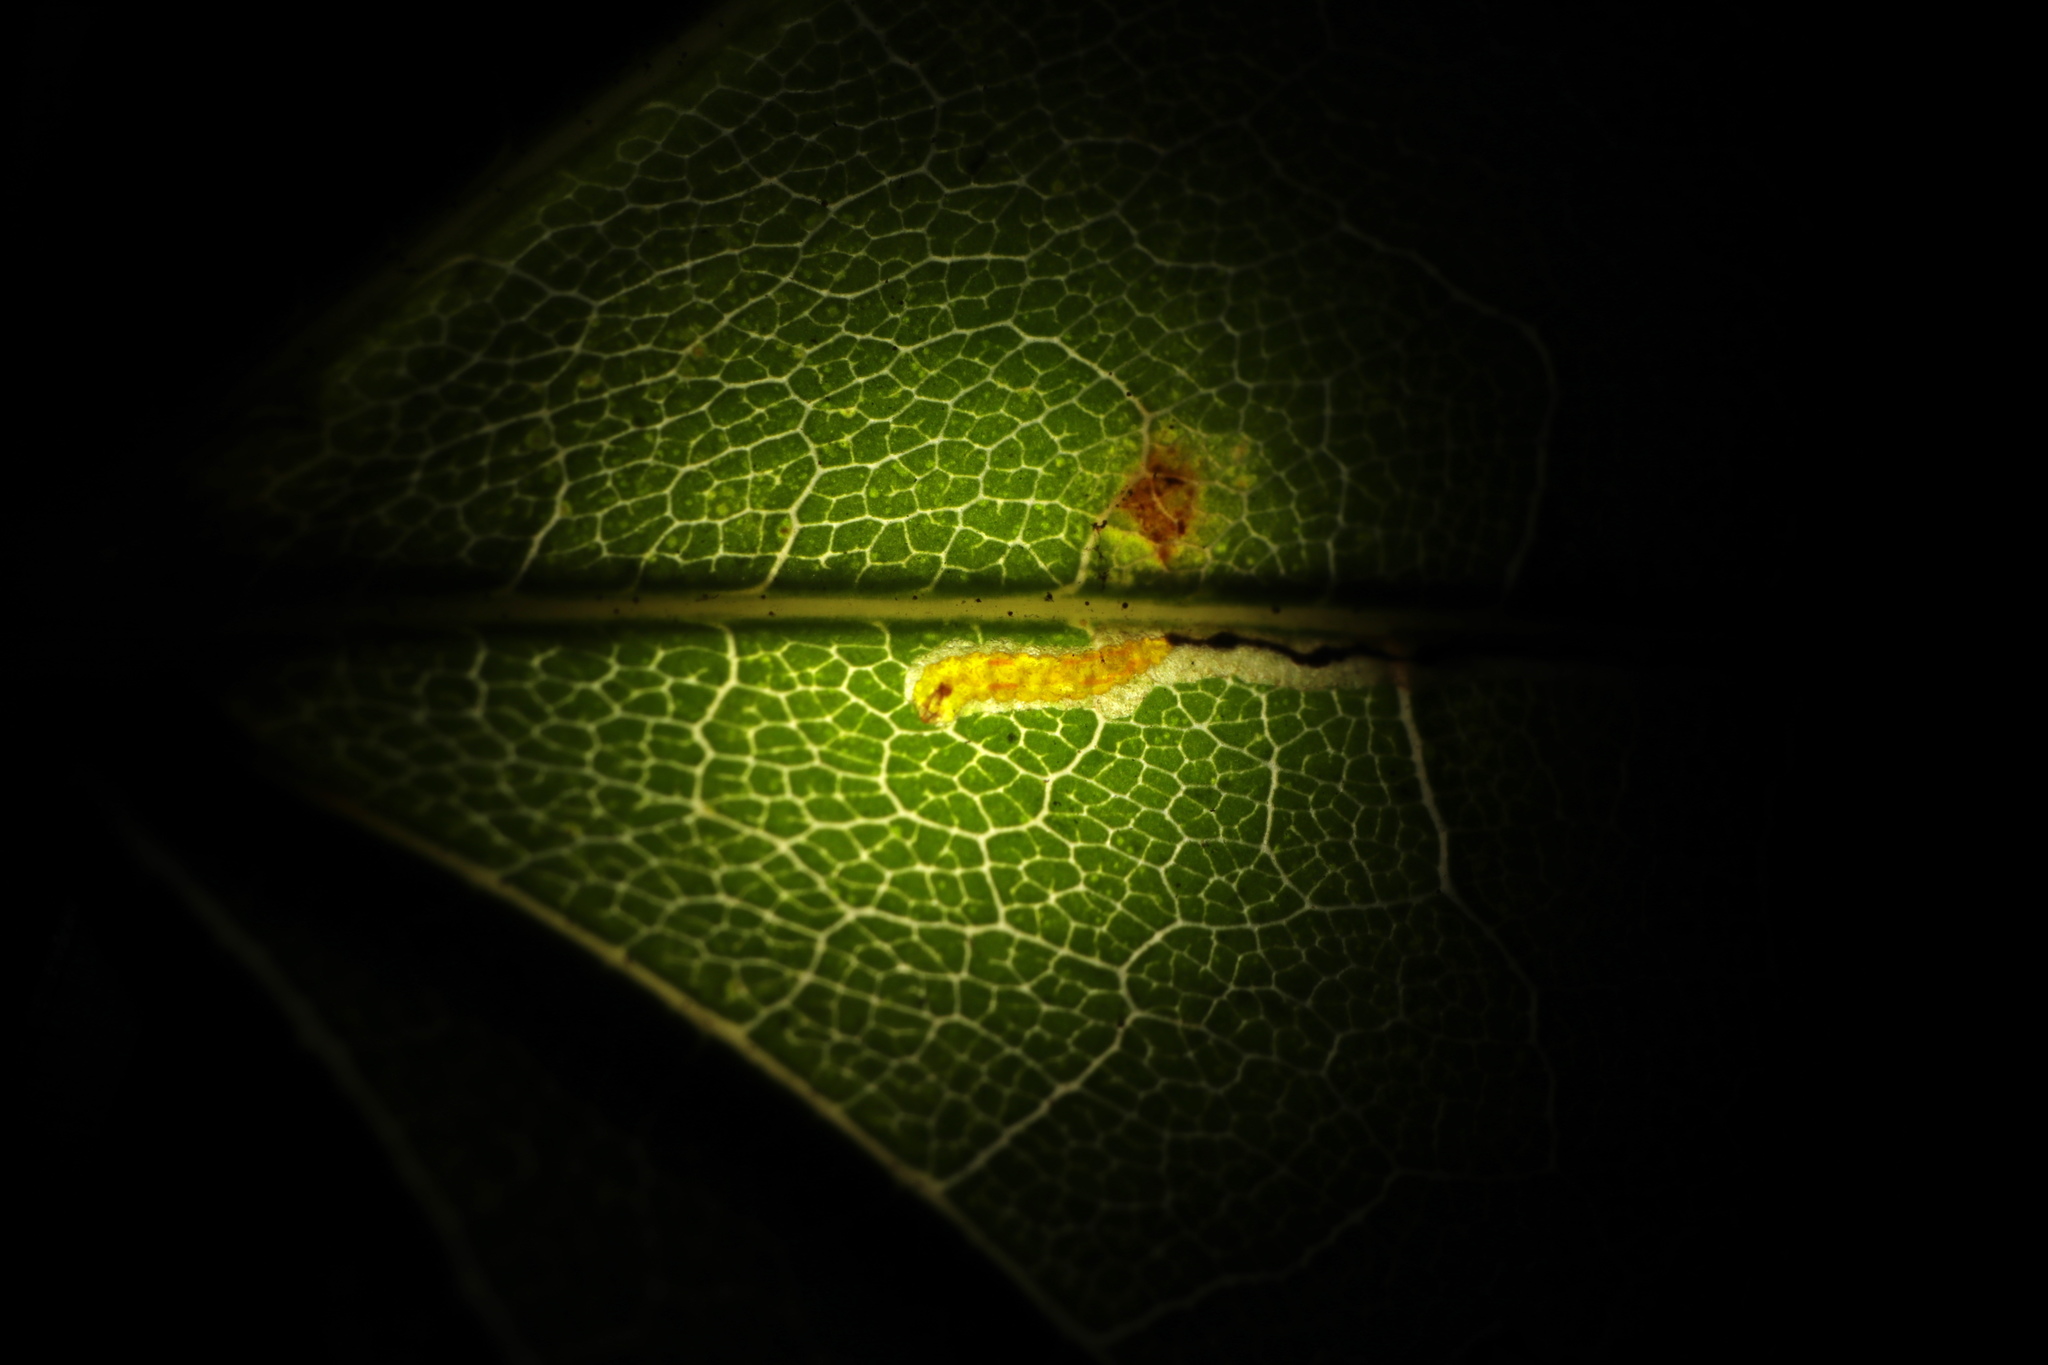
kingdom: Animalia
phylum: Arthropoda
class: Insecta
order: Lepidoptera
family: Nepticulidae
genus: Glaucolepis
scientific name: Glaucolepis saccharella
